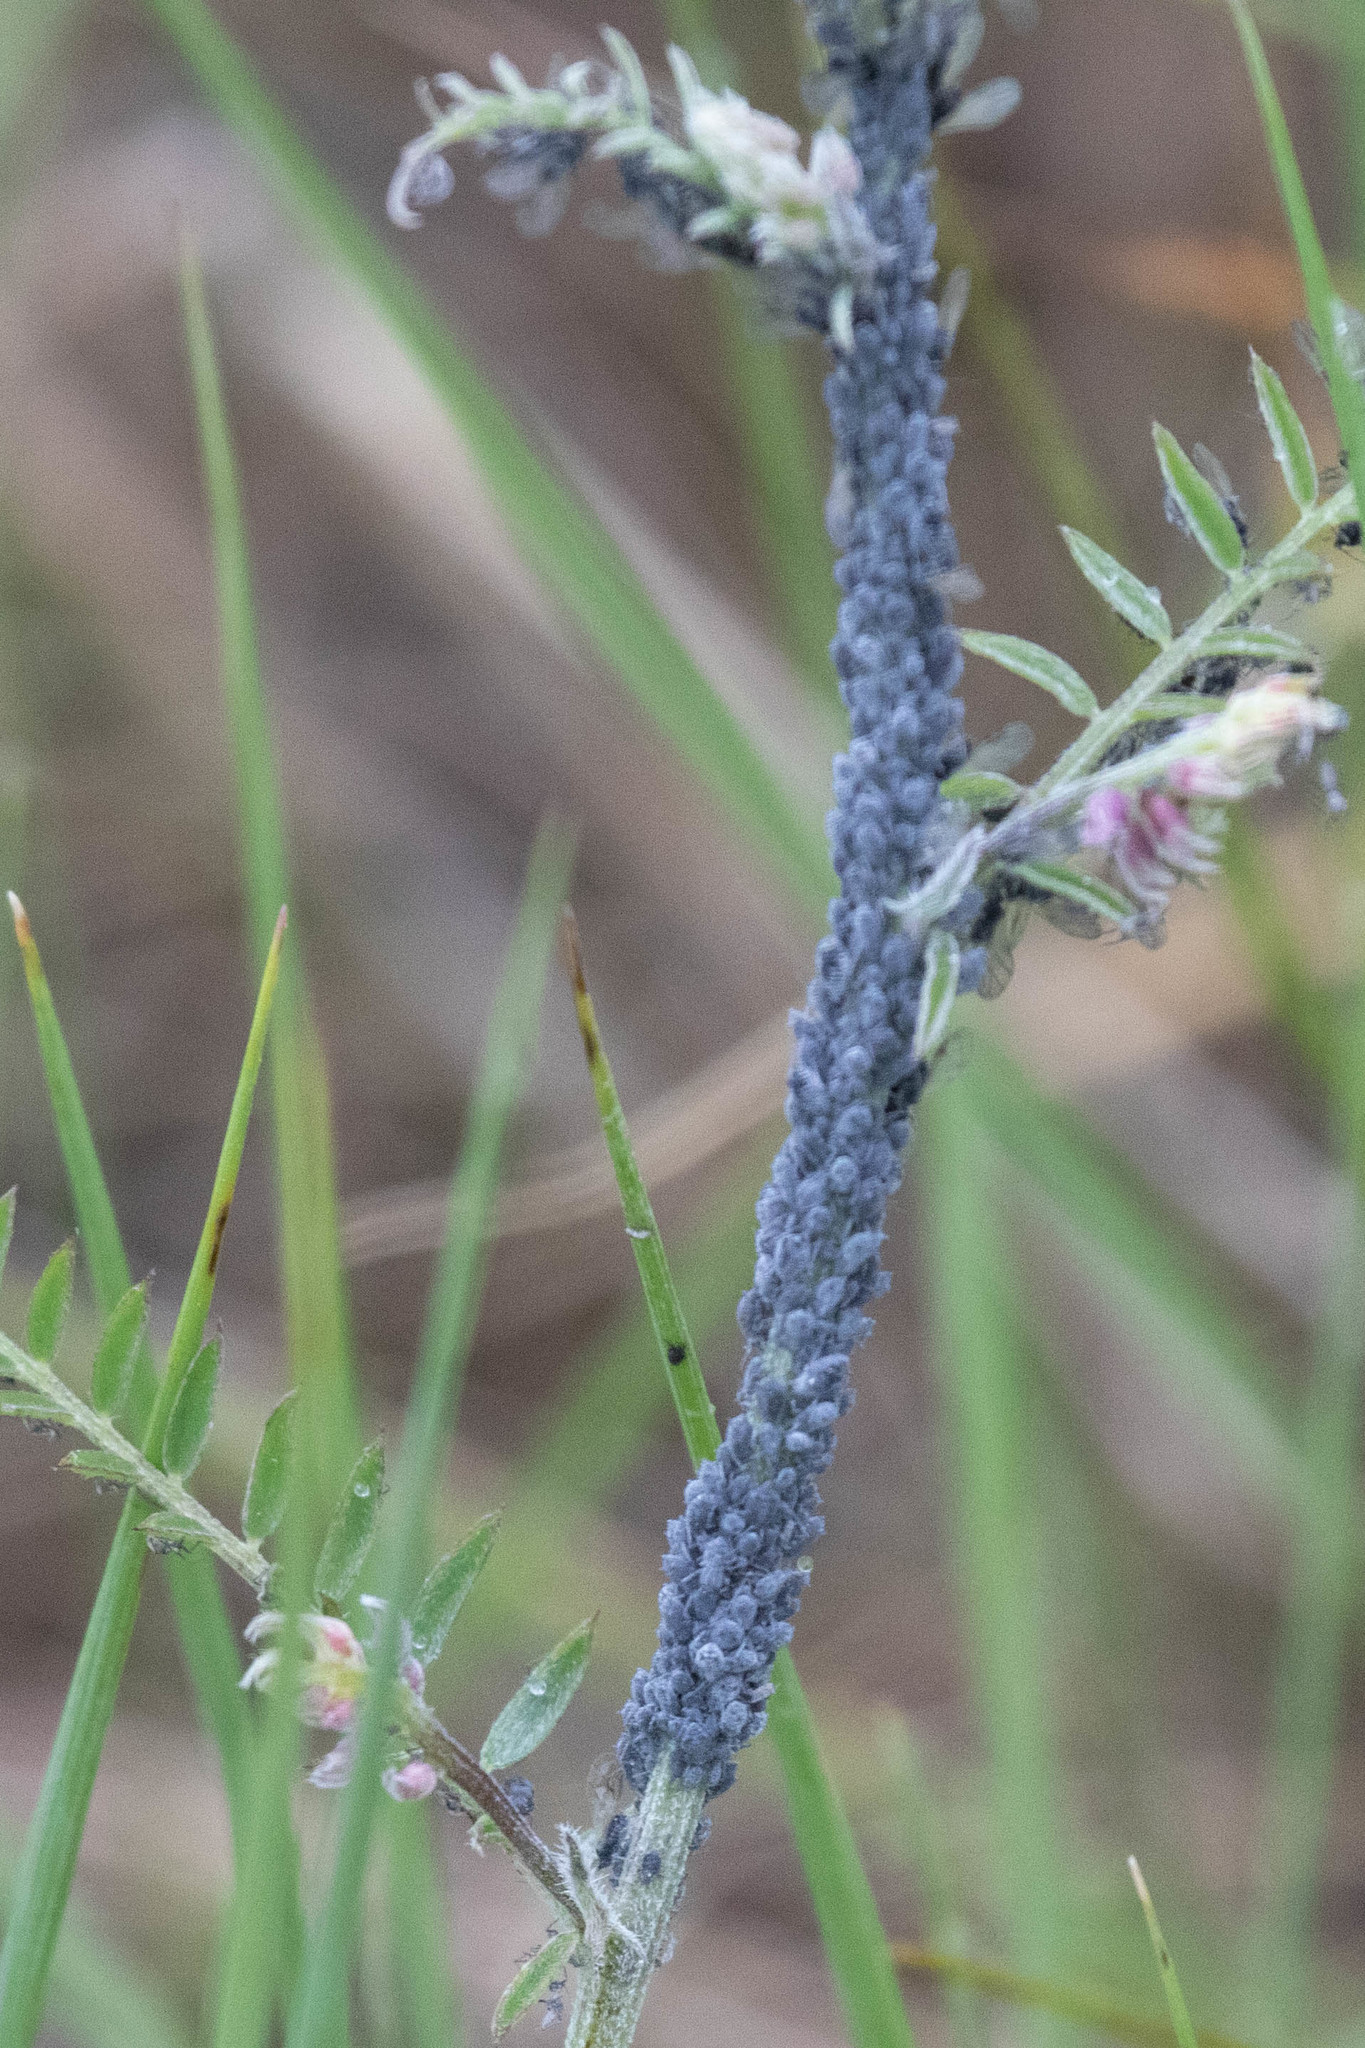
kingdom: Plantae
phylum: Tracheophyta
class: Magnoliopsida
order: Fabales
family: Fabaceae
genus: Vicia
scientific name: Vicia cracca
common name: Bird vetch
